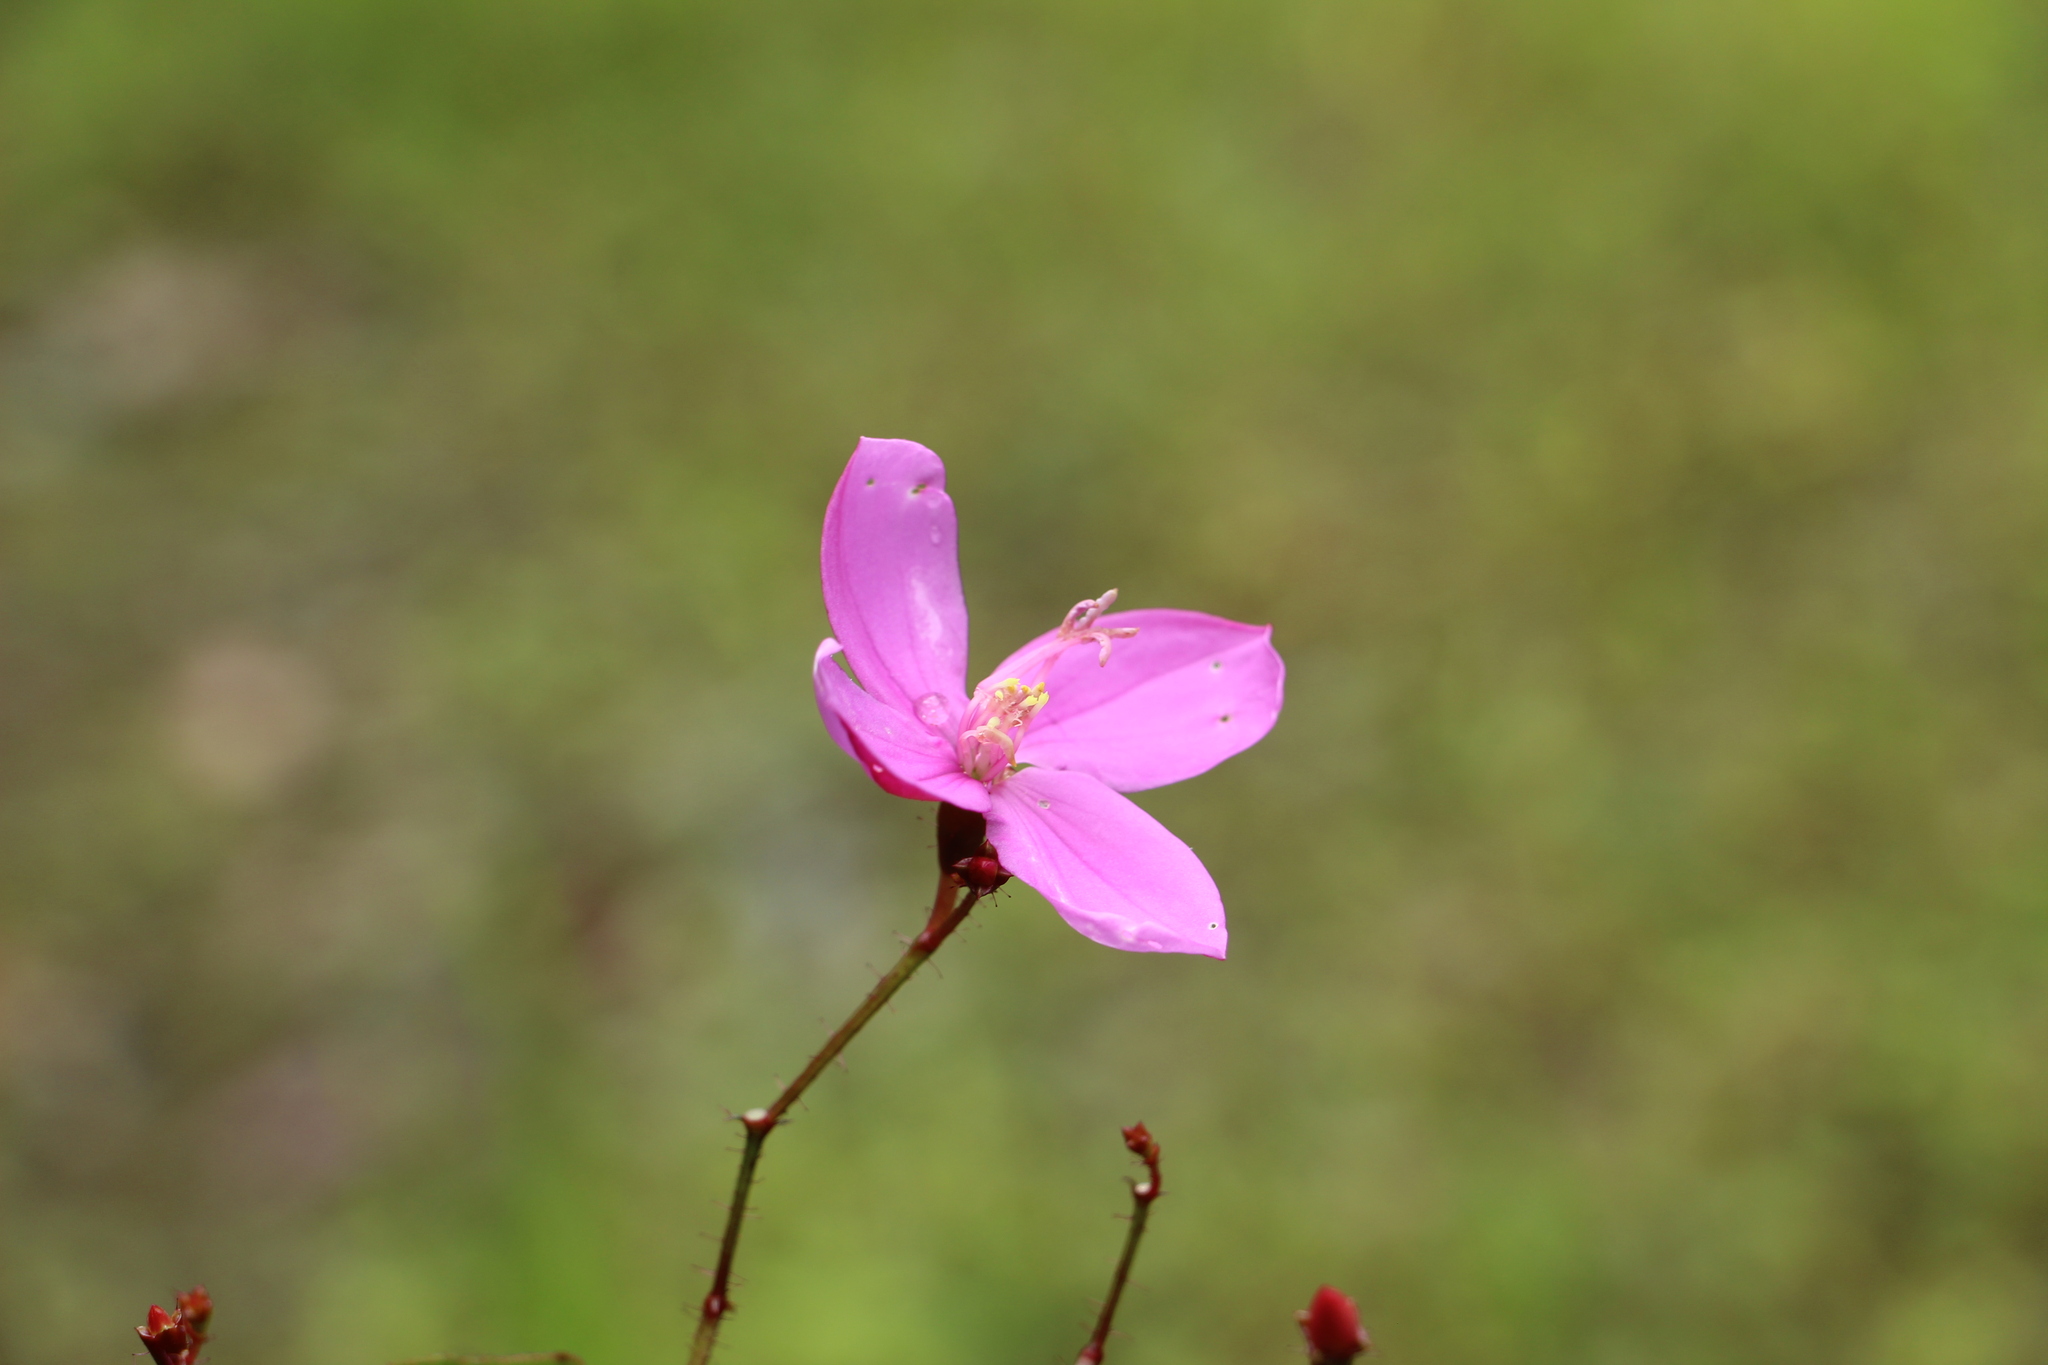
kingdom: Plantae
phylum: Tracheophyta
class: Magnoliopsida
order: Myrtales
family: Melastomataceae
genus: Arthrostemma
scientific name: Arthrostemma ciliatum
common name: Everblooming eavender
